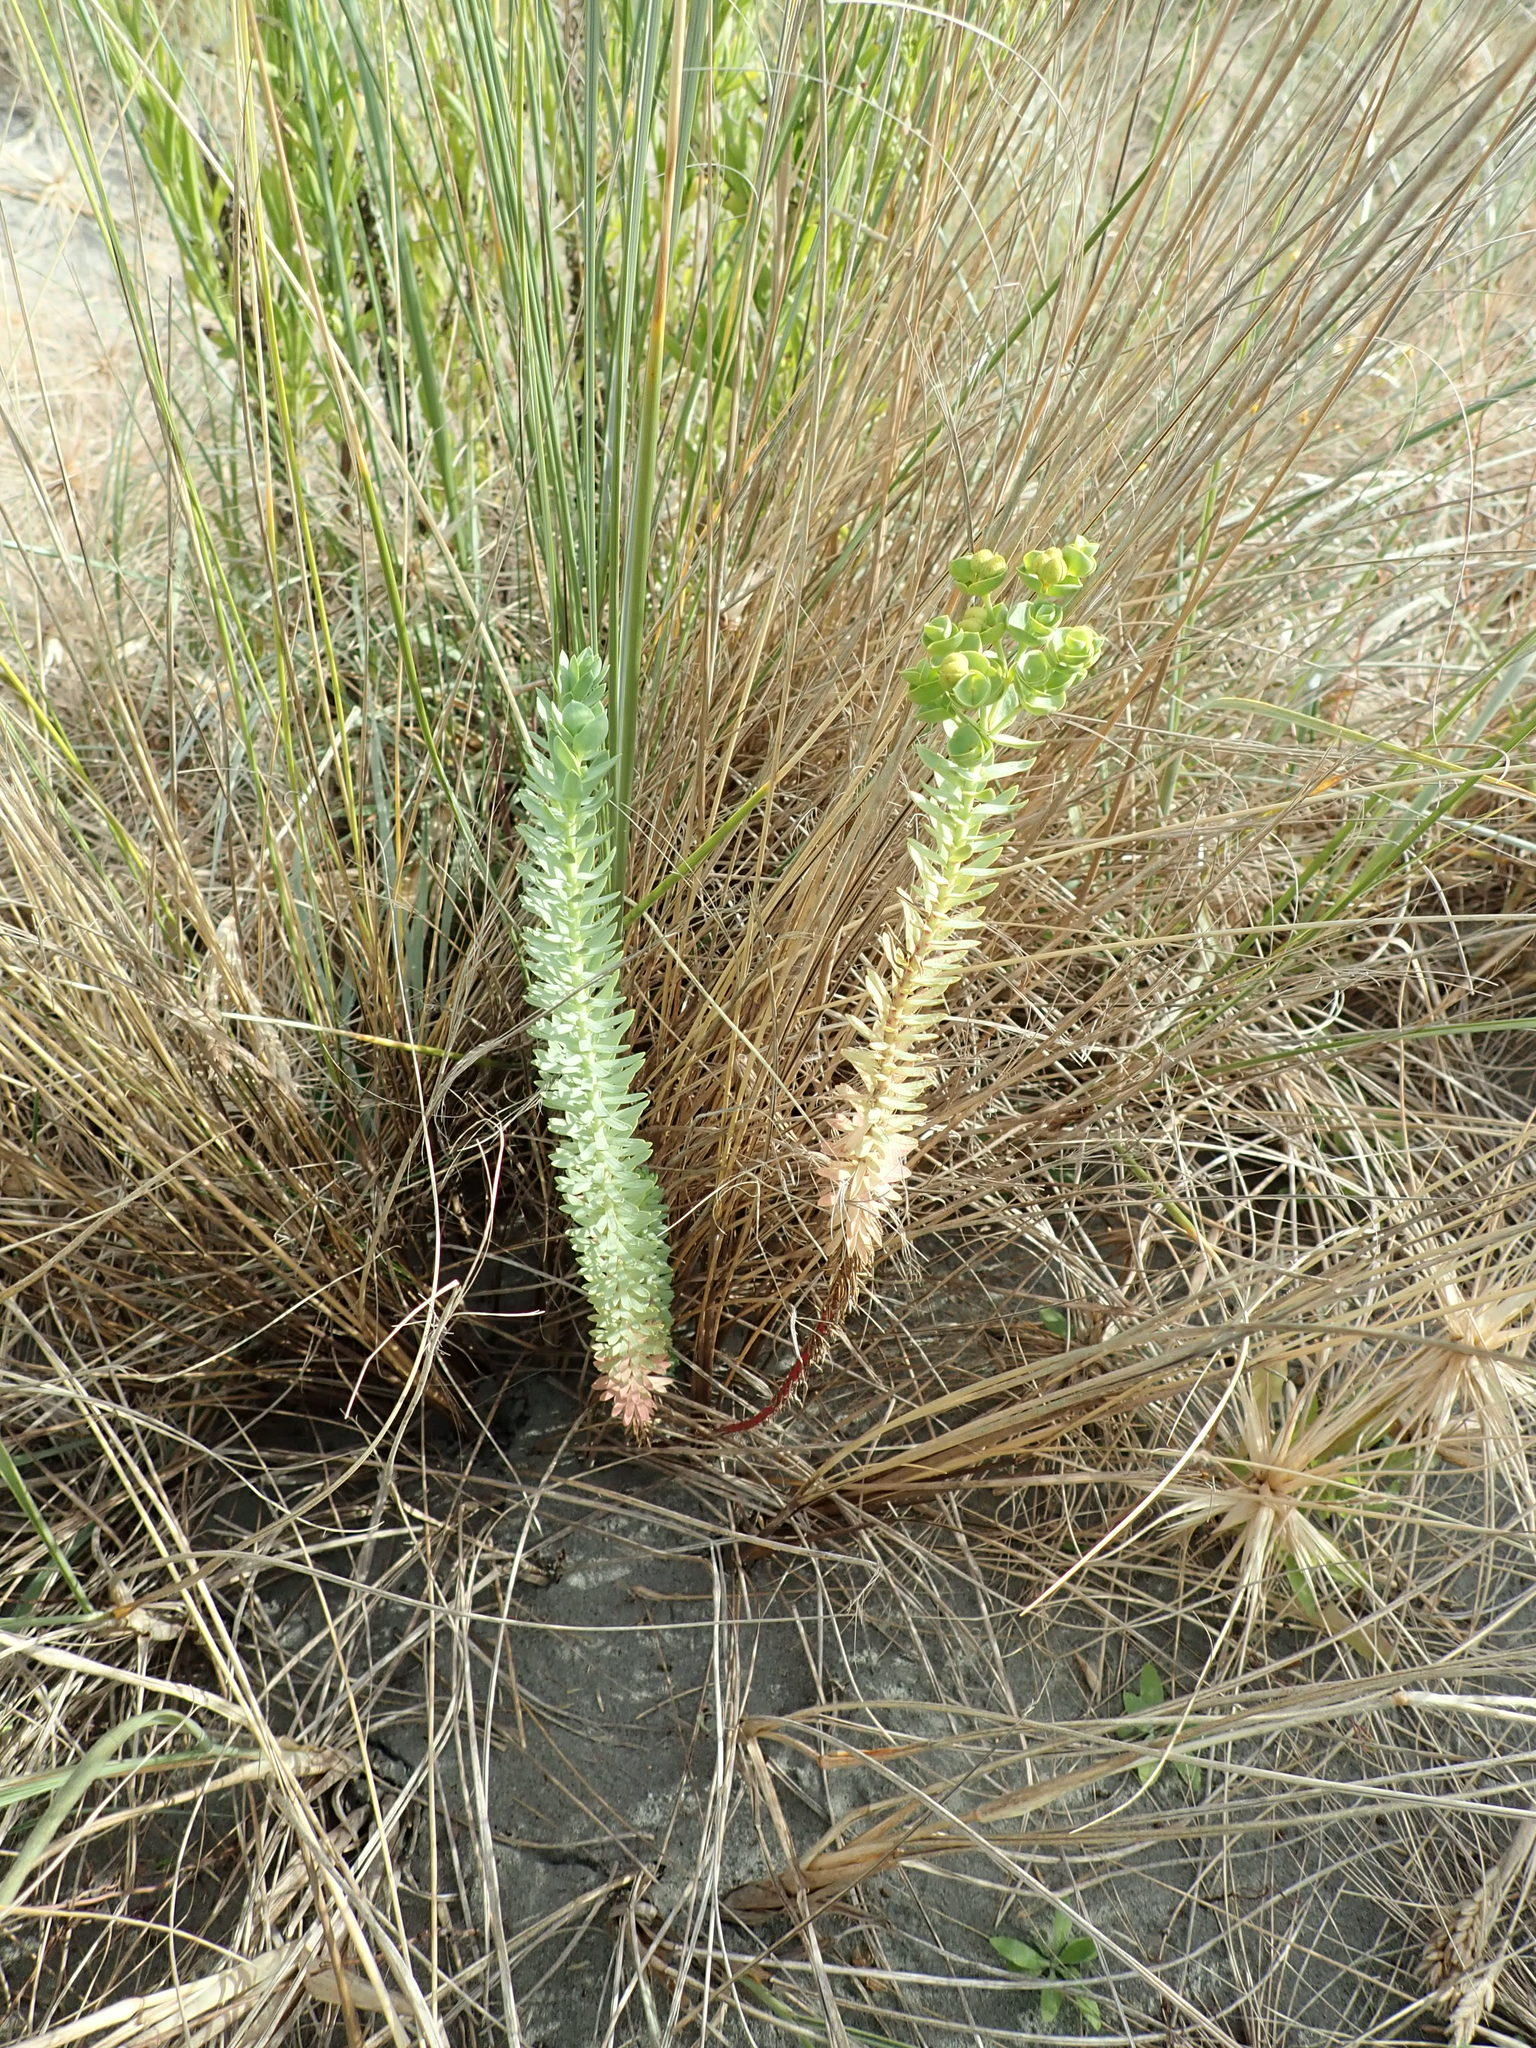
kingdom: Plantae
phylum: Tracheophyta
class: Magnoliopsida
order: Malpighiales
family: Euphorbiaceae
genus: Euphorbia
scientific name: Euphorbia paralias
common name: Sea spurge
